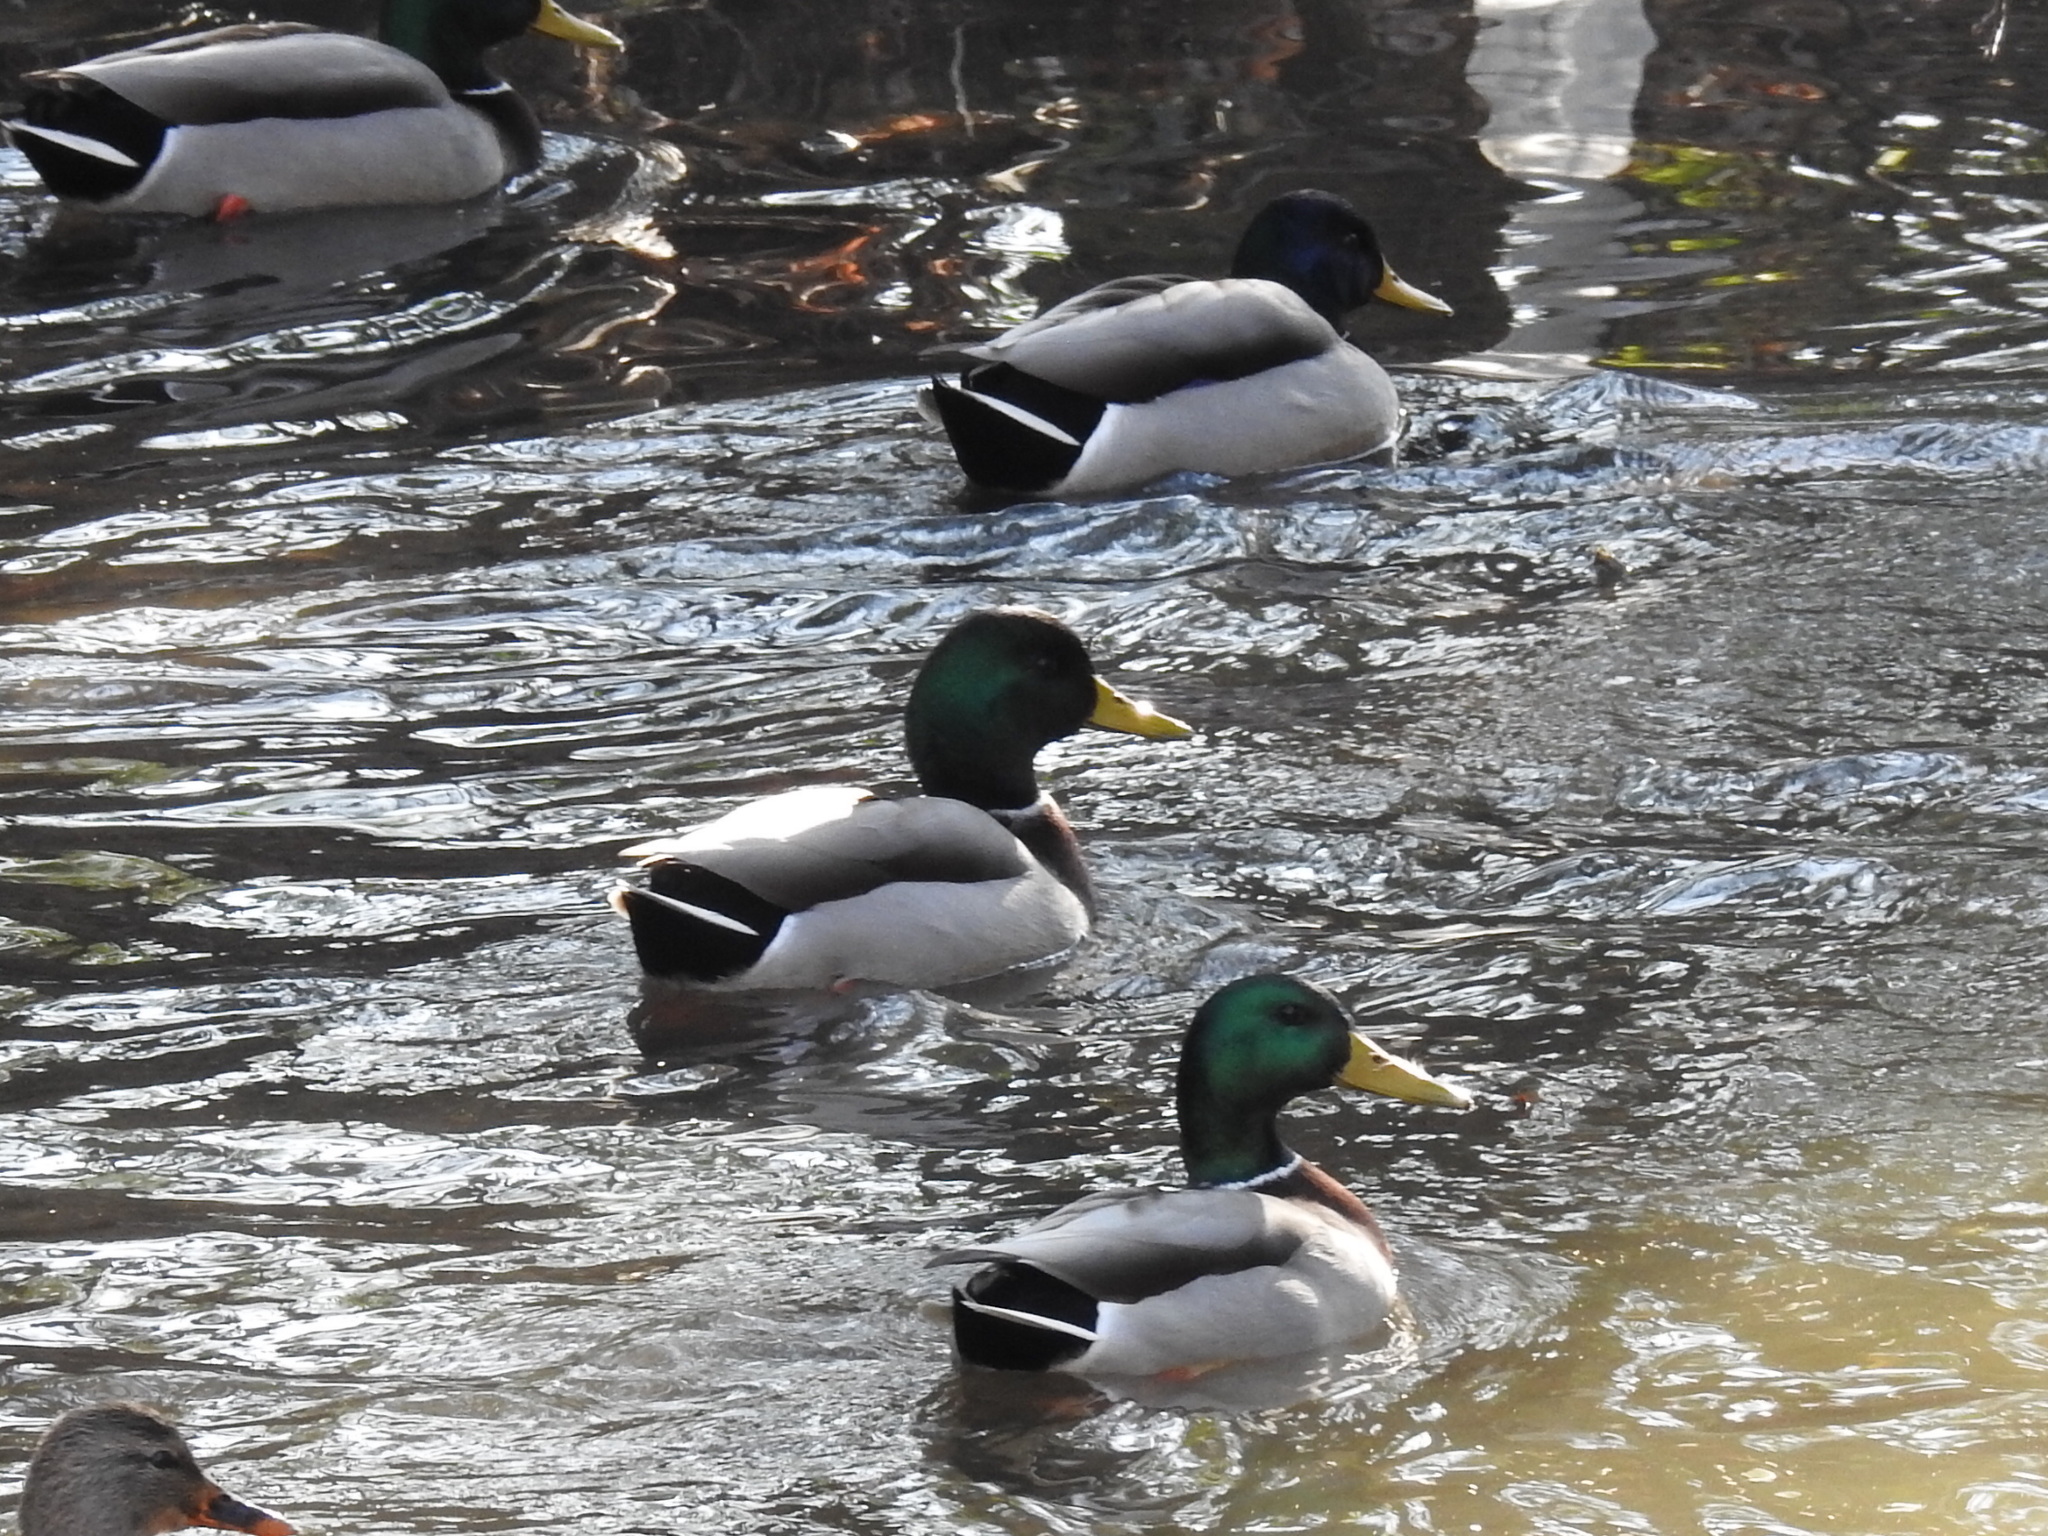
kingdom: Animalia
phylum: Chordata
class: Aves
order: Anseriformes
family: Anatidae
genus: Anas
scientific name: Anas platyrhynchos
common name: Mallard
